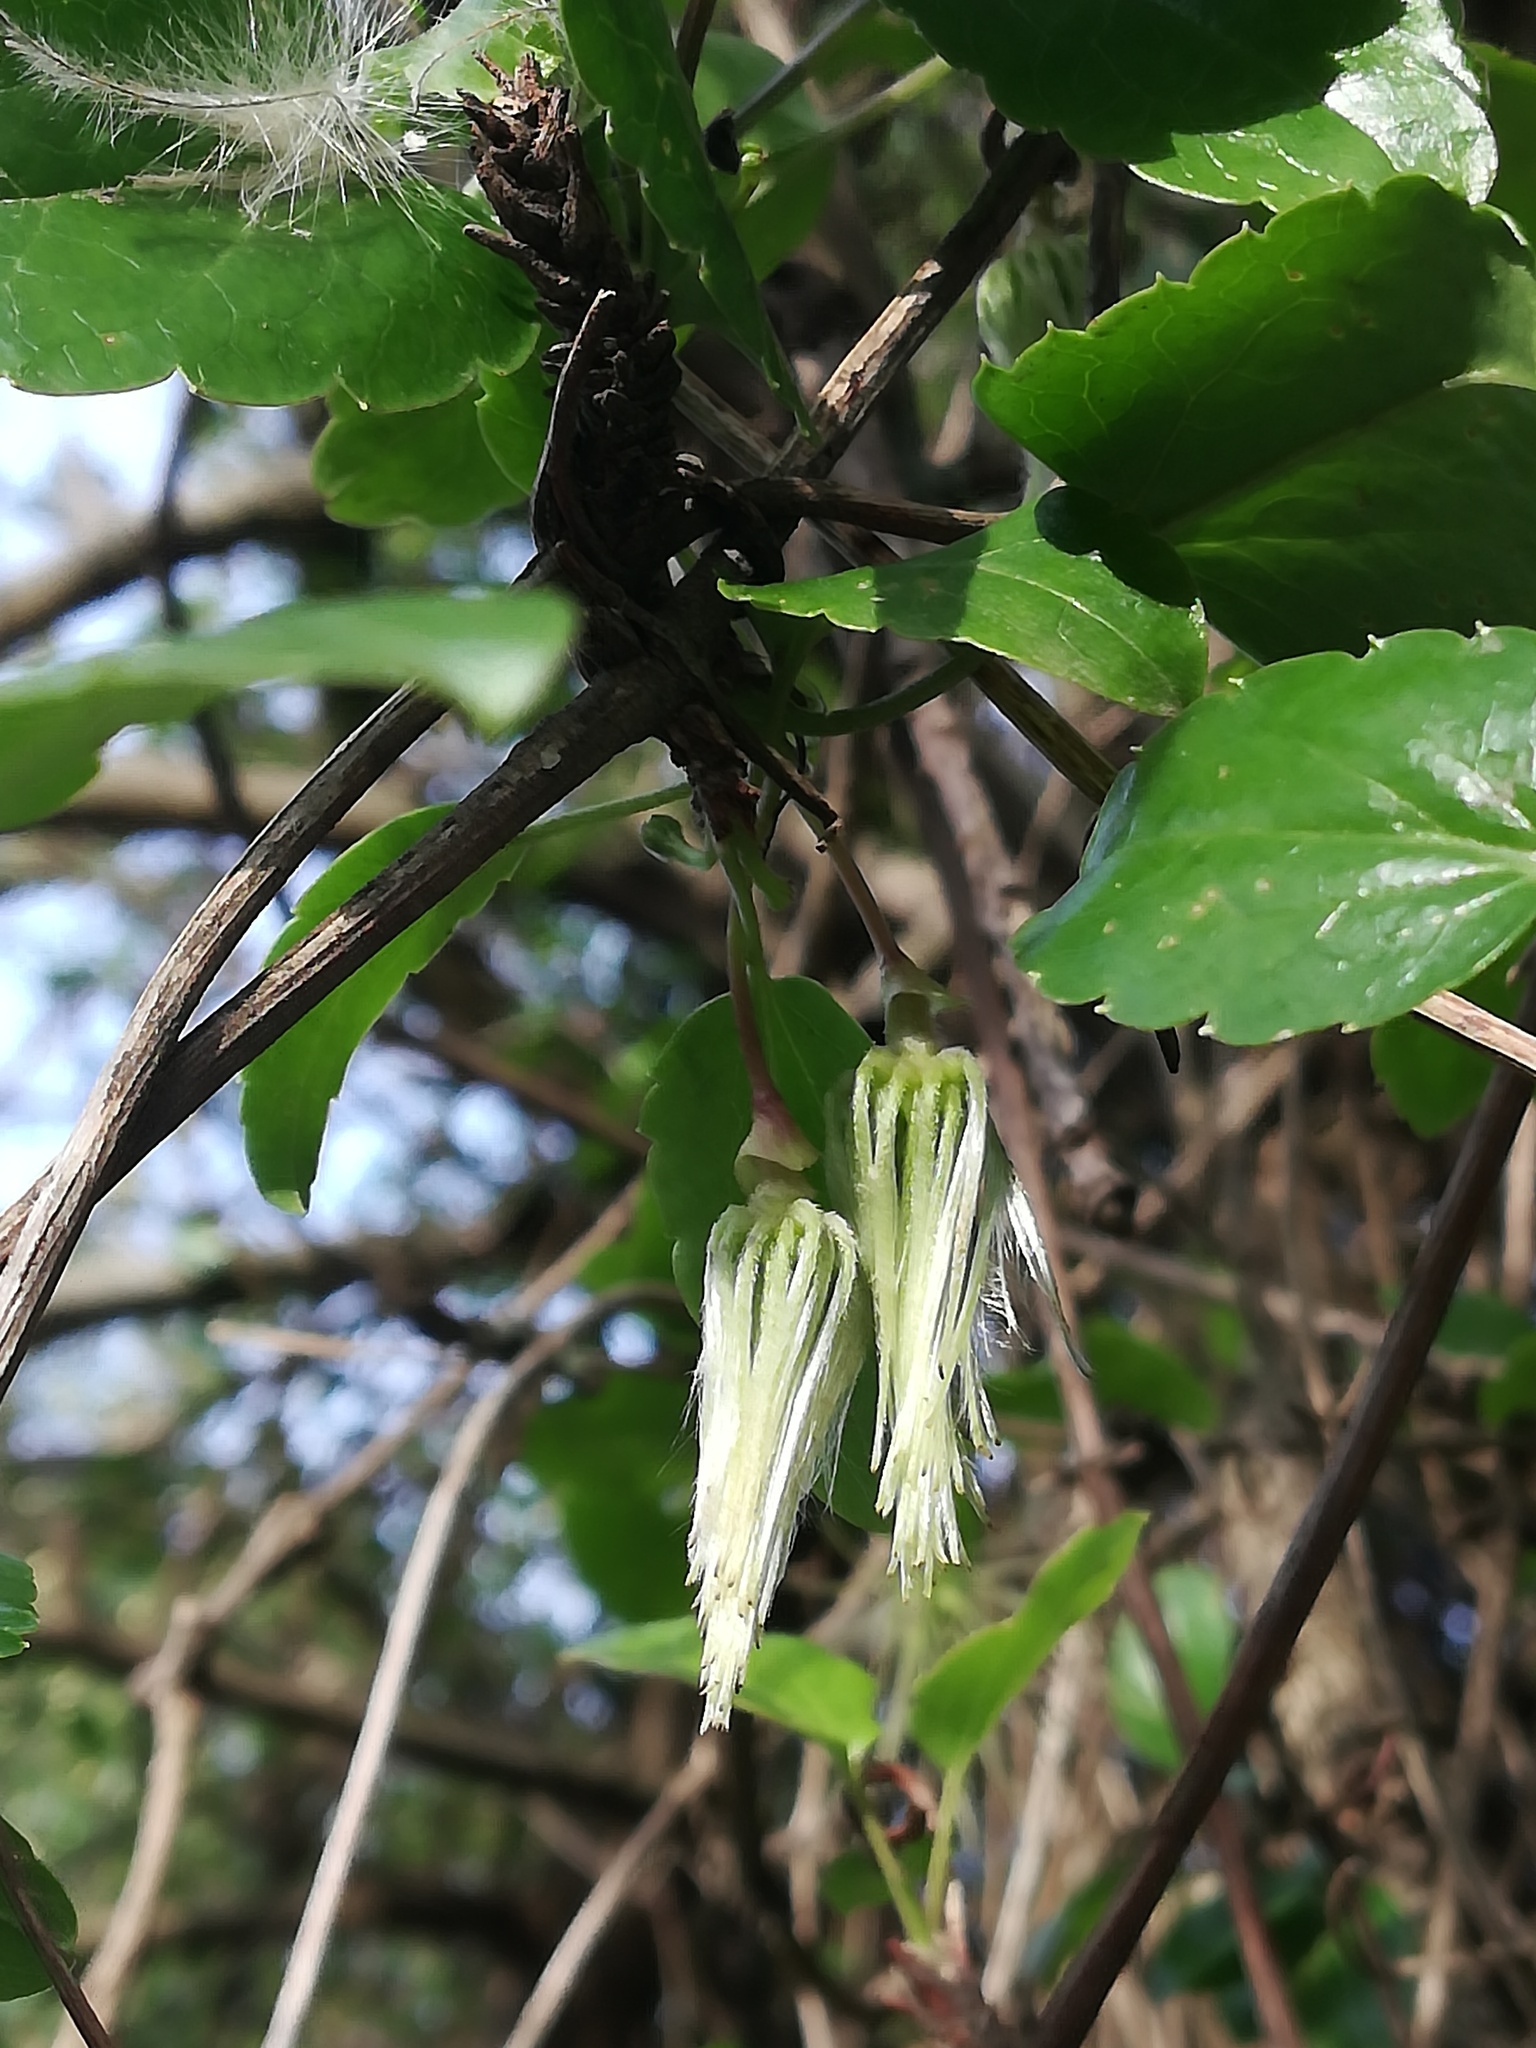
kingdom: Plantae
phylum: Tracheophyta
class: Magnoliopsida
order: Ranunculales
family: Ranunculaceae
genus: Clematis
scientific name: Clematis cirrhosa
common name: Early virgin's-bower
